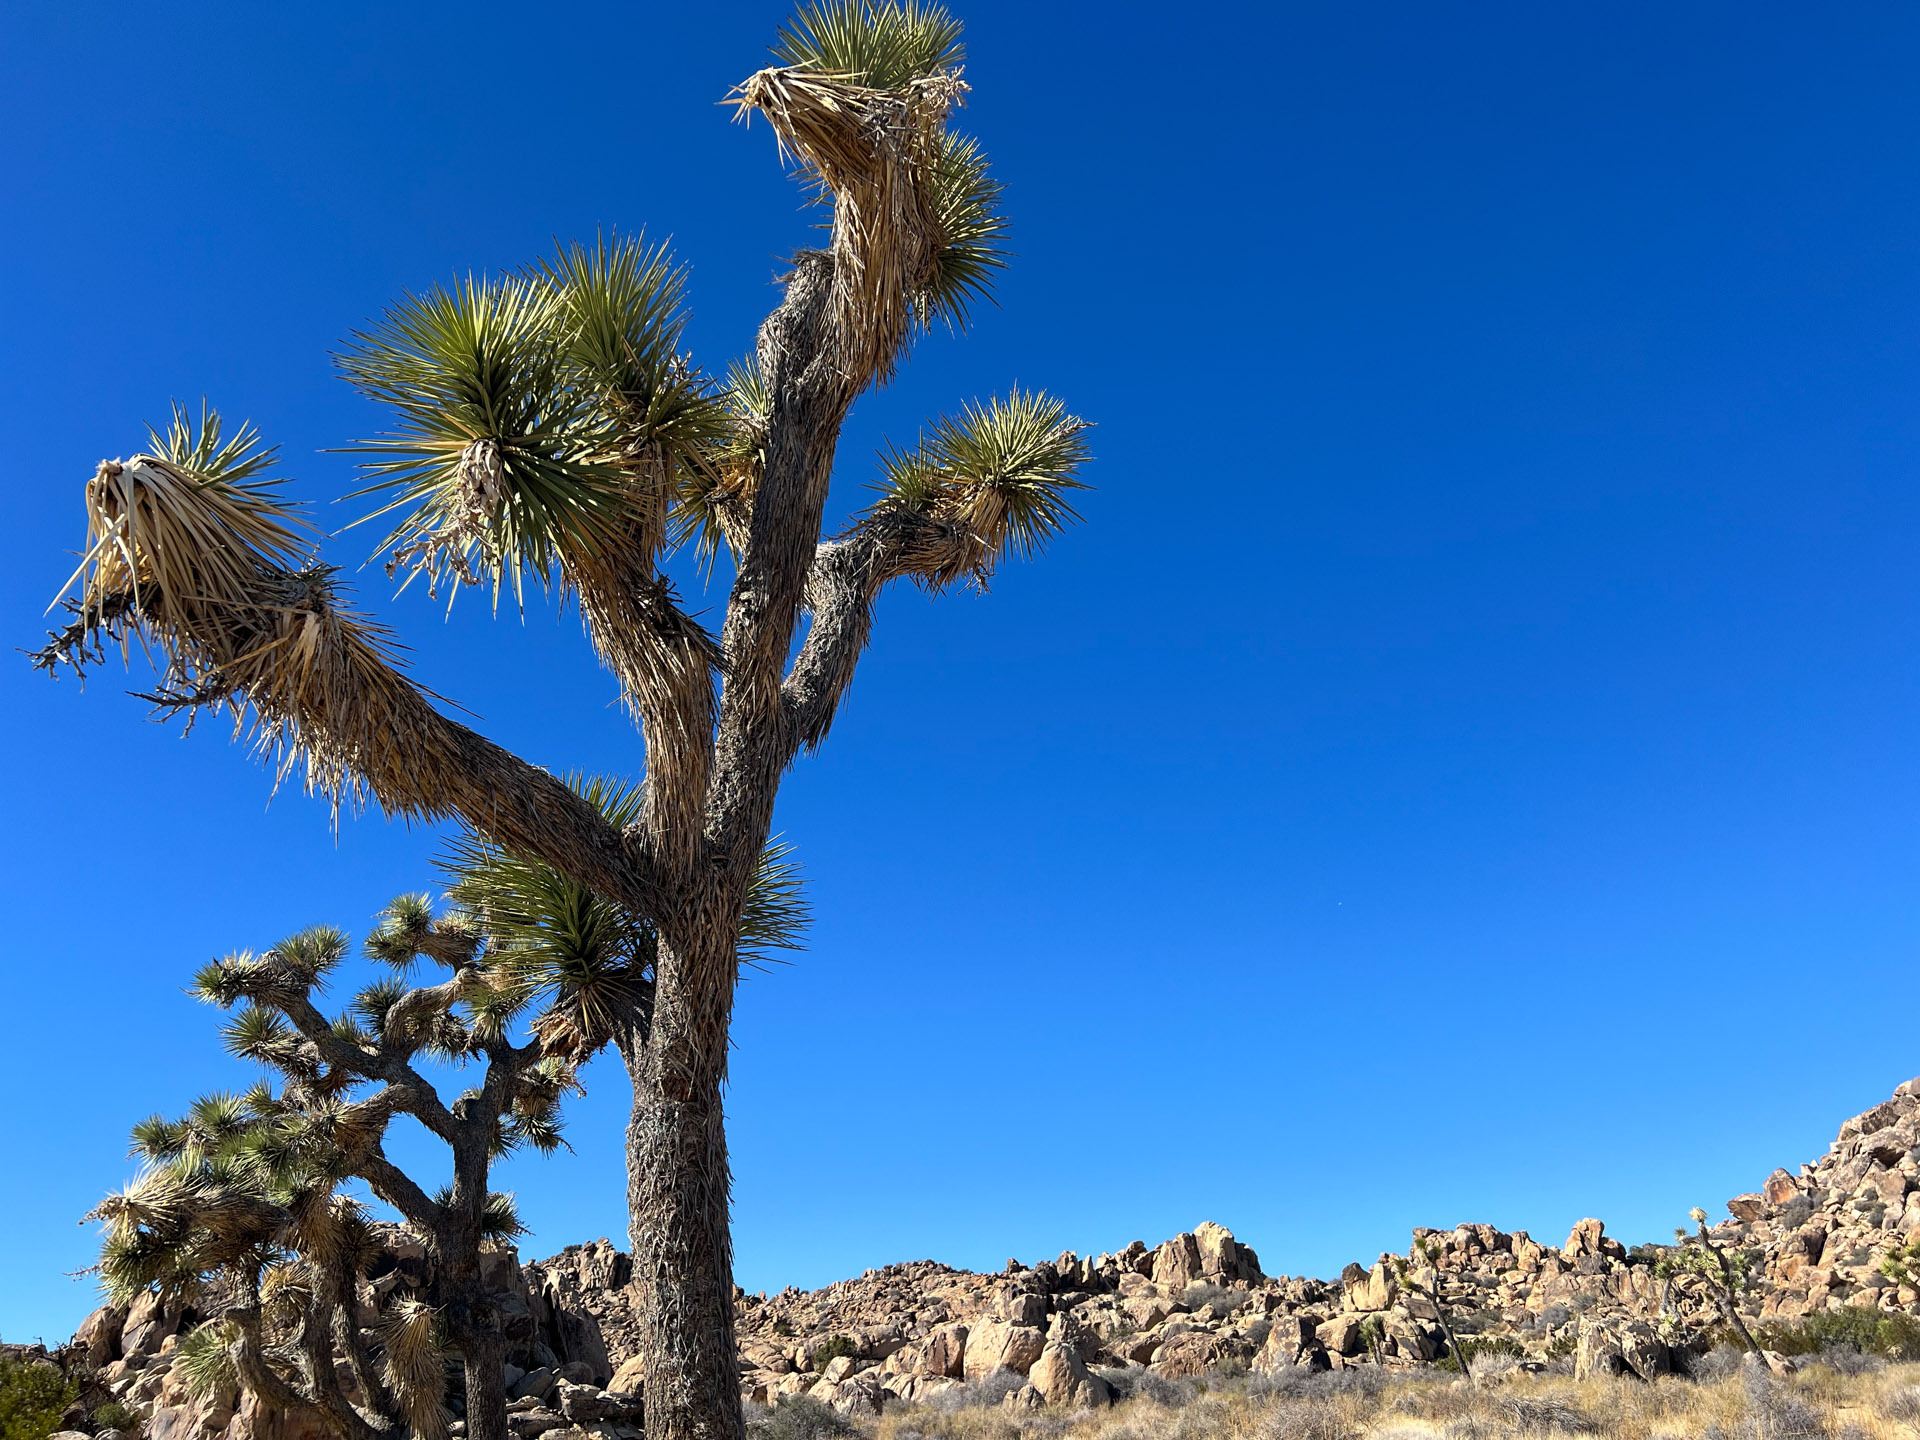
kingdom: Plantae
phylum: Tracheophyta
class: Liliopsida
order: Asparagales
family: Asparagaceae
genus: Yucca
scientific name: Yucca brevifolia
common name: Joshua tree
